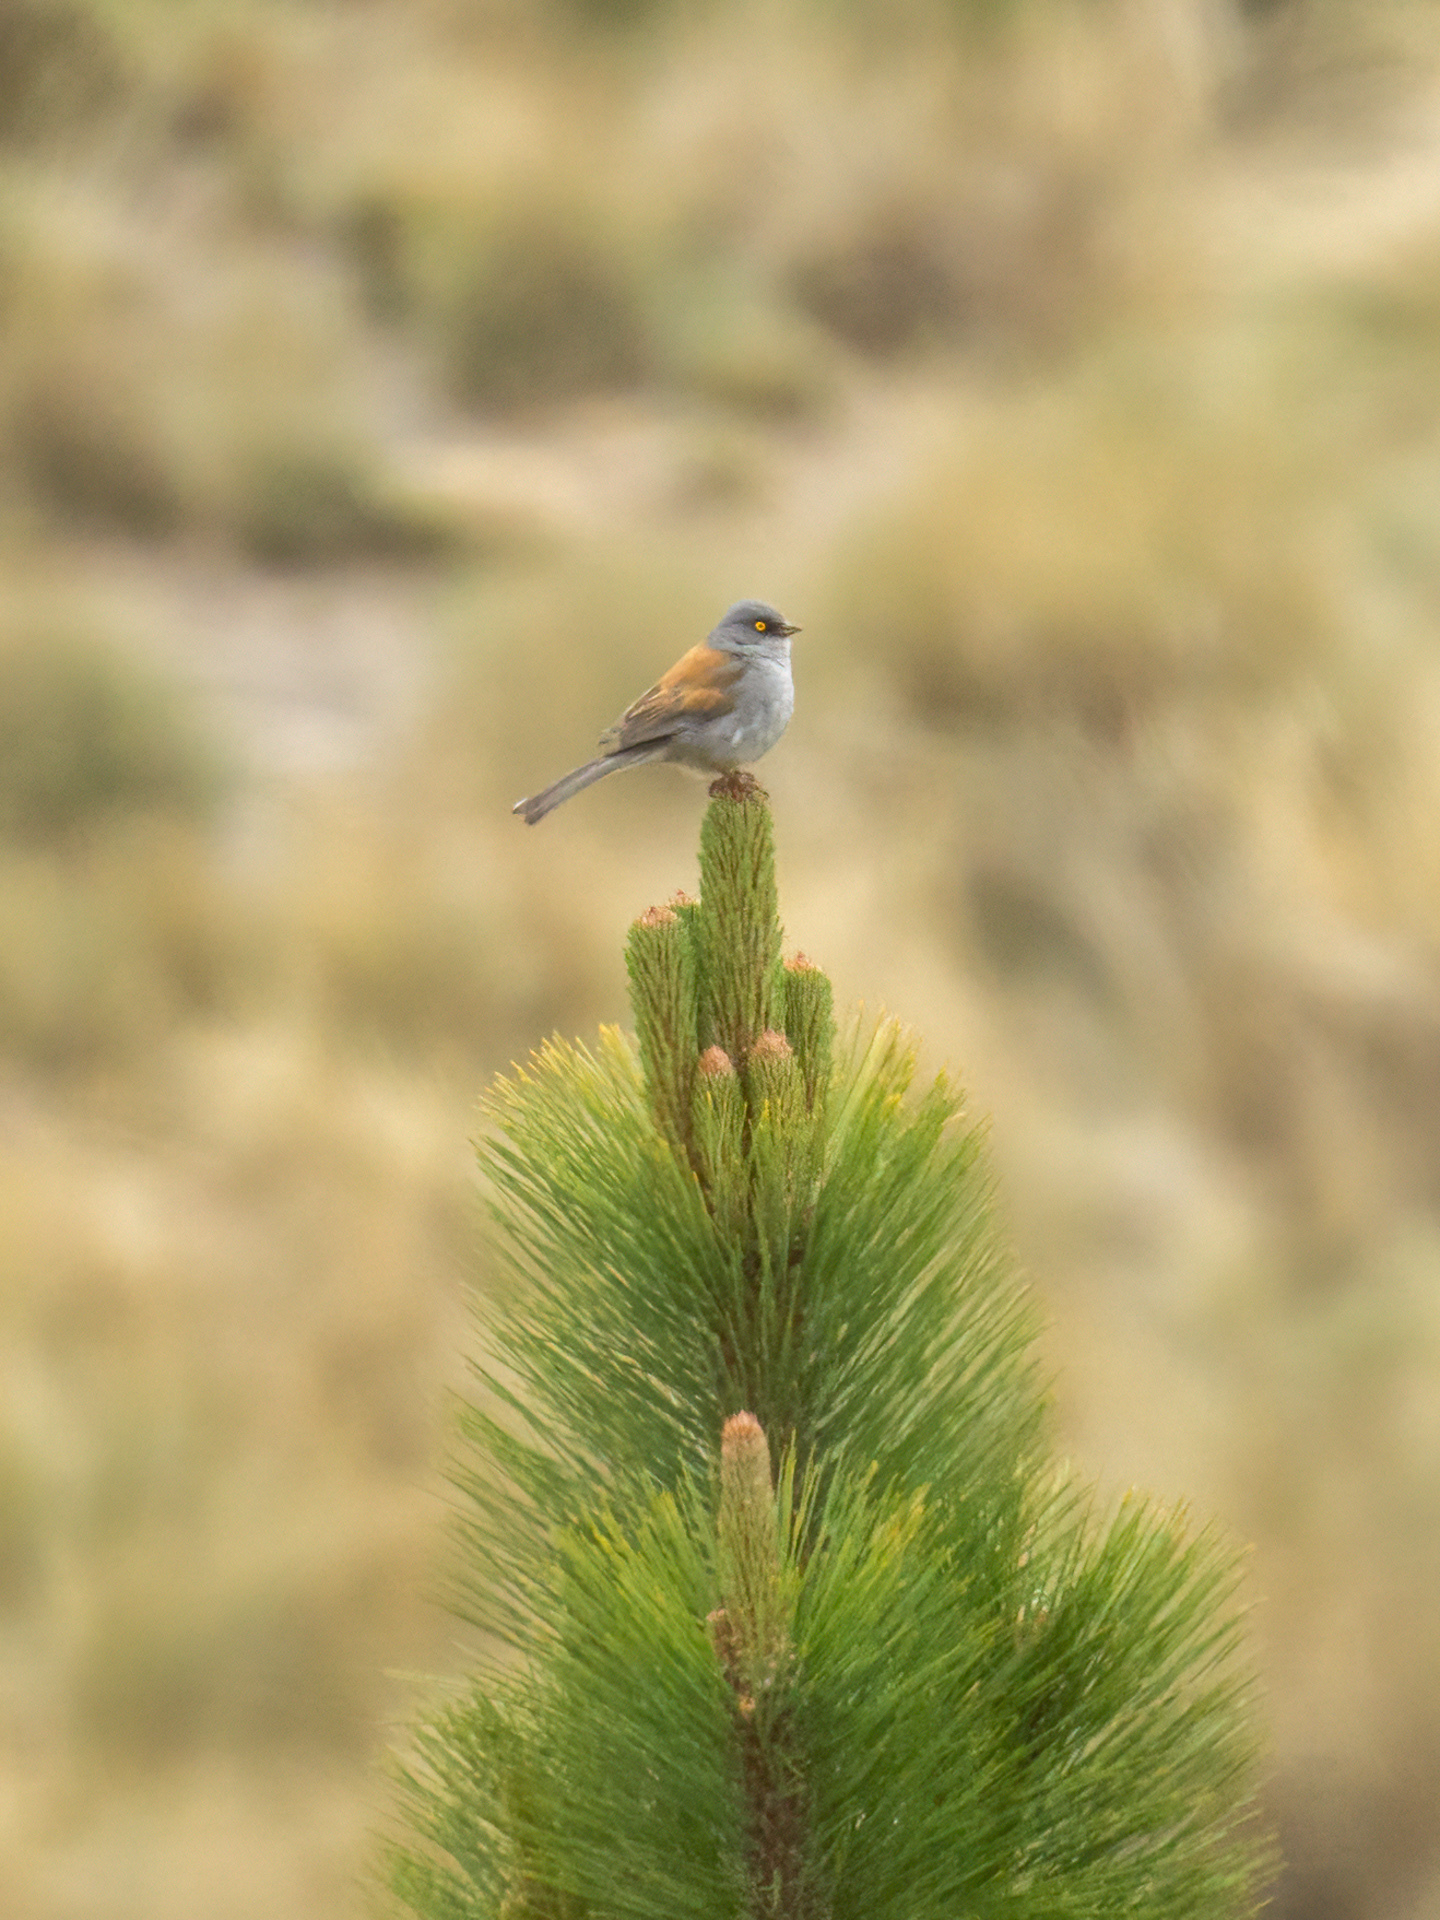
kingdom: Animalia
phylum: Chordata
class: Aves
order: Passeriformes
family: Passerellidae
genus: Junco
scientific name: Junco phaeonotus
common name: Yellow-eyed junco
